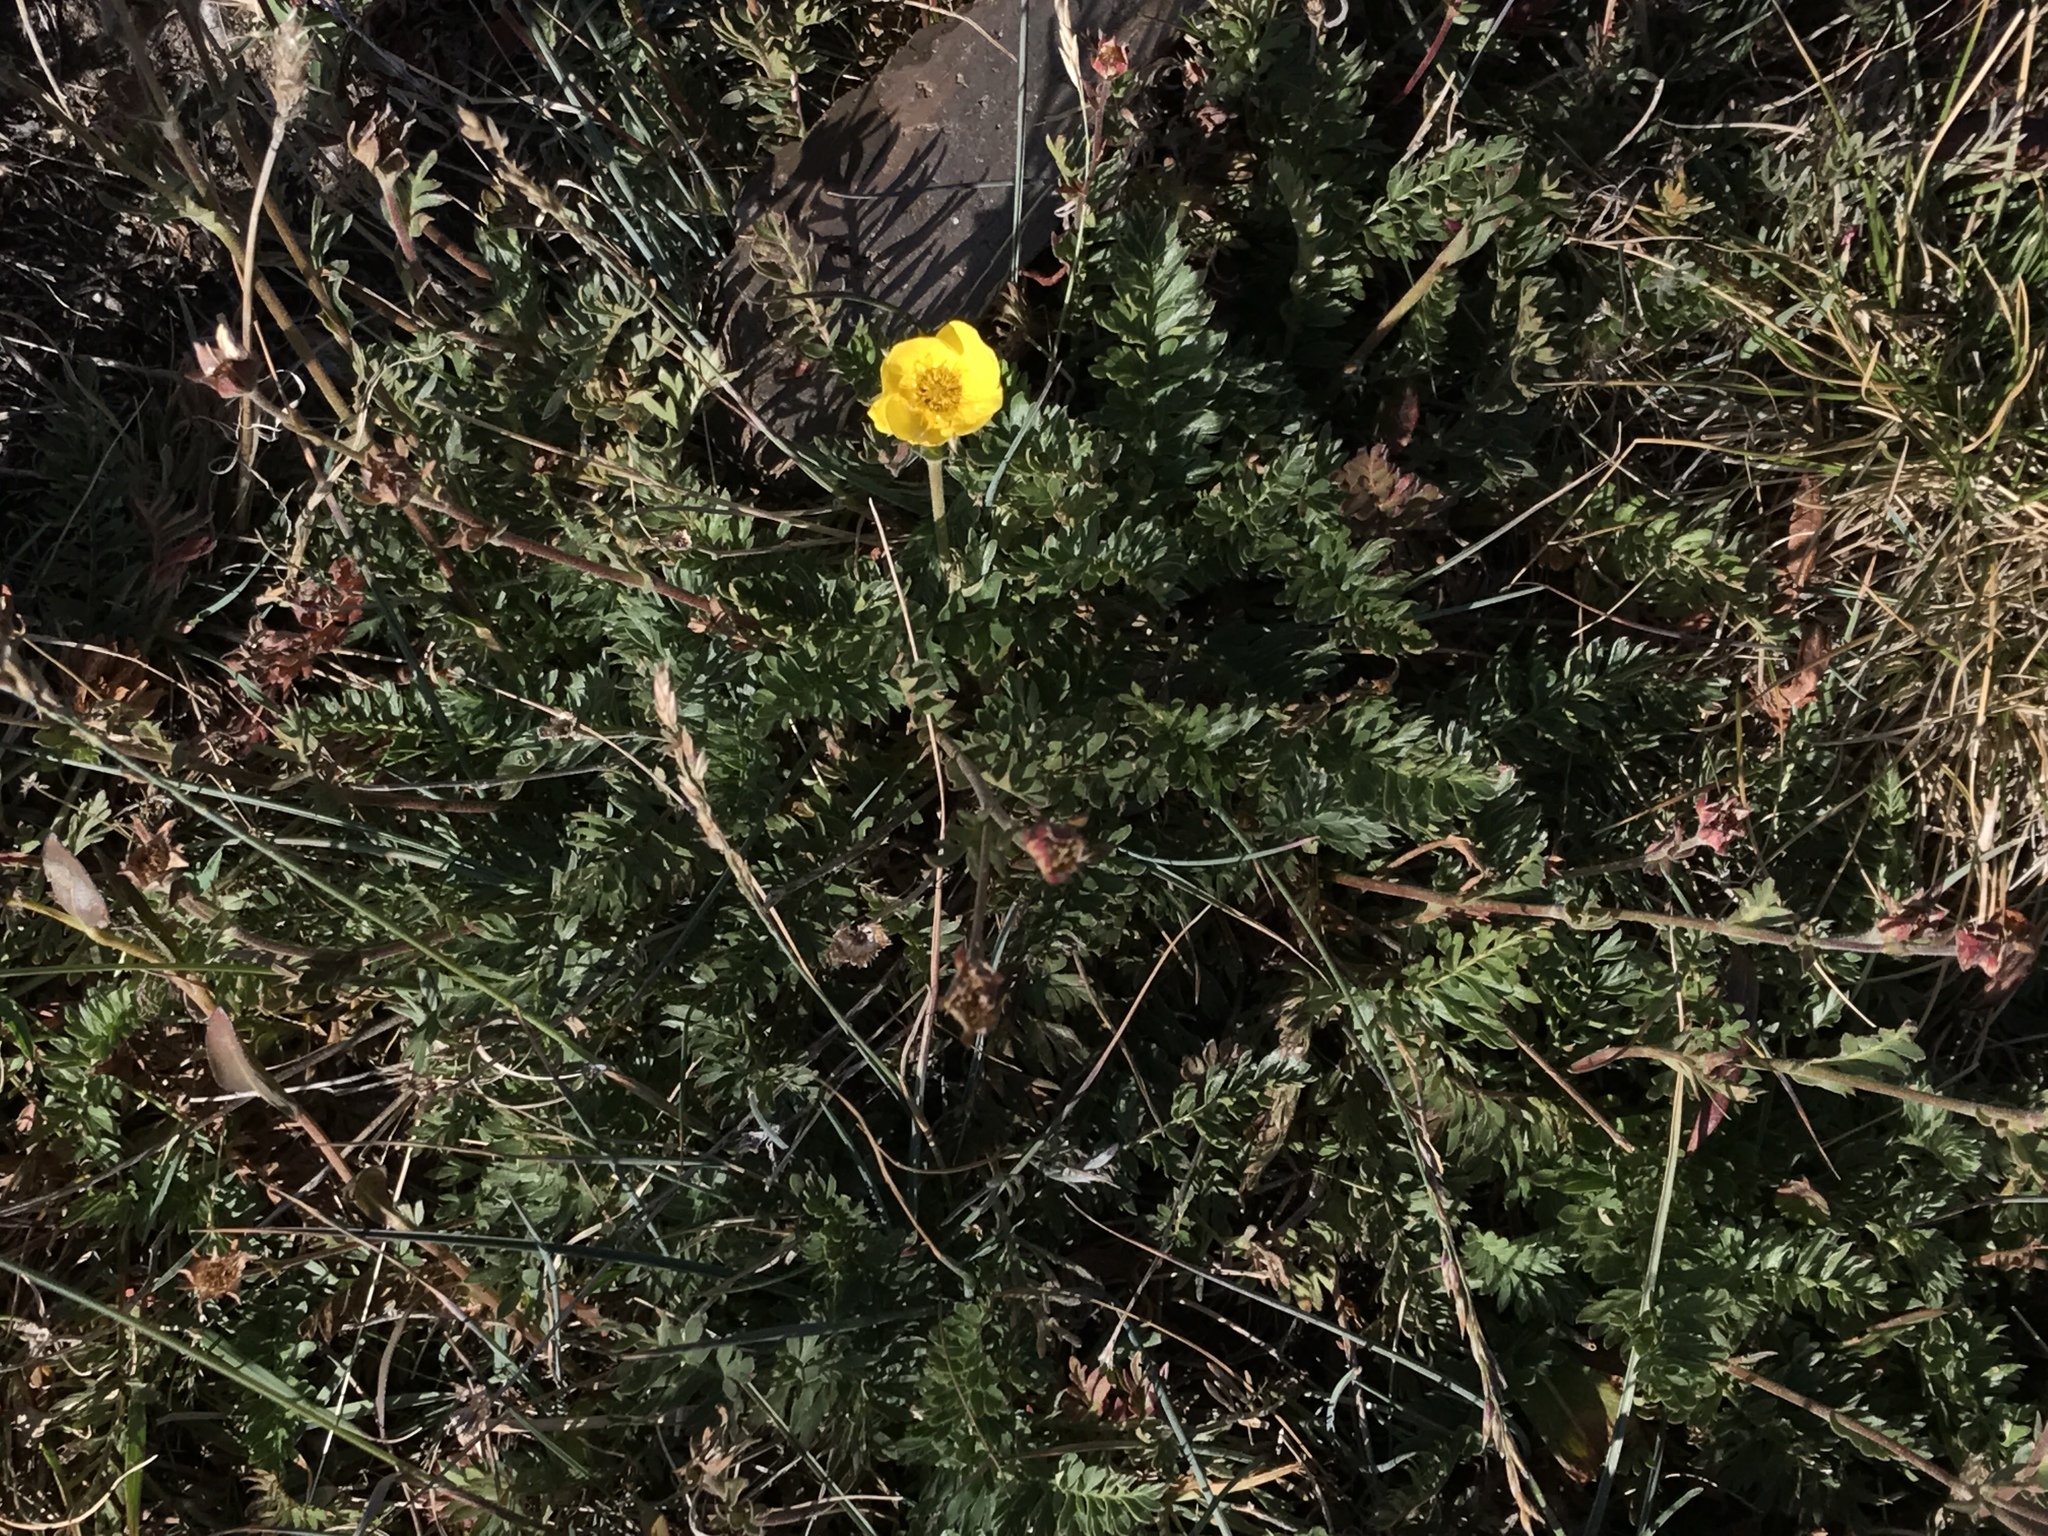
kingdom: Plantae
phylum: Tracheophyta
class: Magnoliopsida
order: Rosales
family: Rosaceae
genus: Geum
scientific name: Geum rossii
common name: Alpine avens
